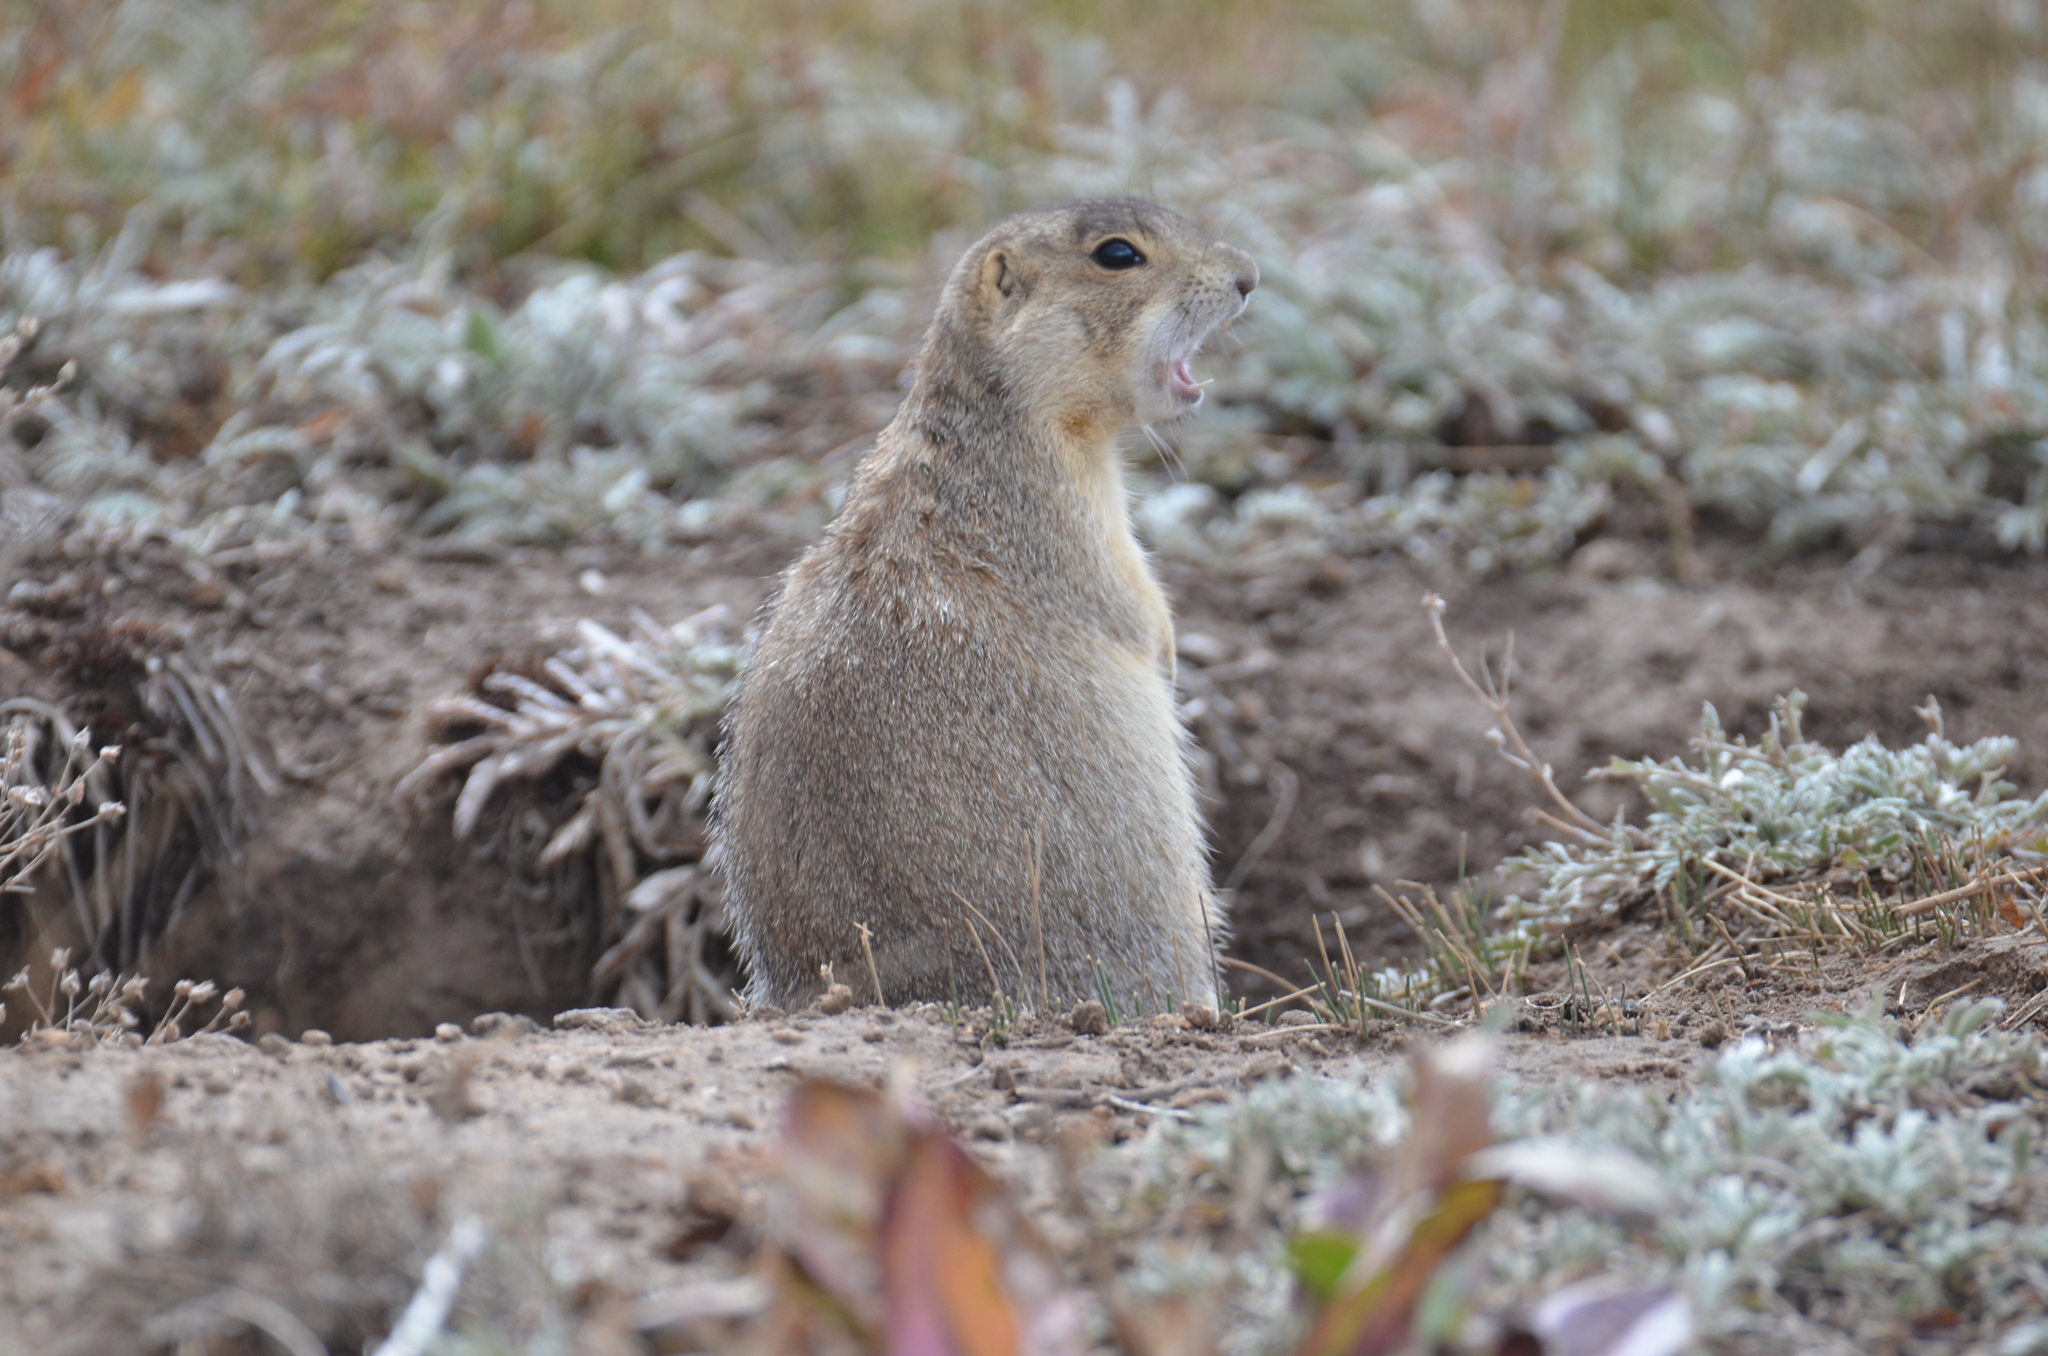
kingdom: Animalia
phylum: Chordata
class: Mammalia
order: Rodentia
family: Sciuridae
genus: Cynomys
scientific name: Cynomys gunnisoni
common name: Gunnison's prairie dog
